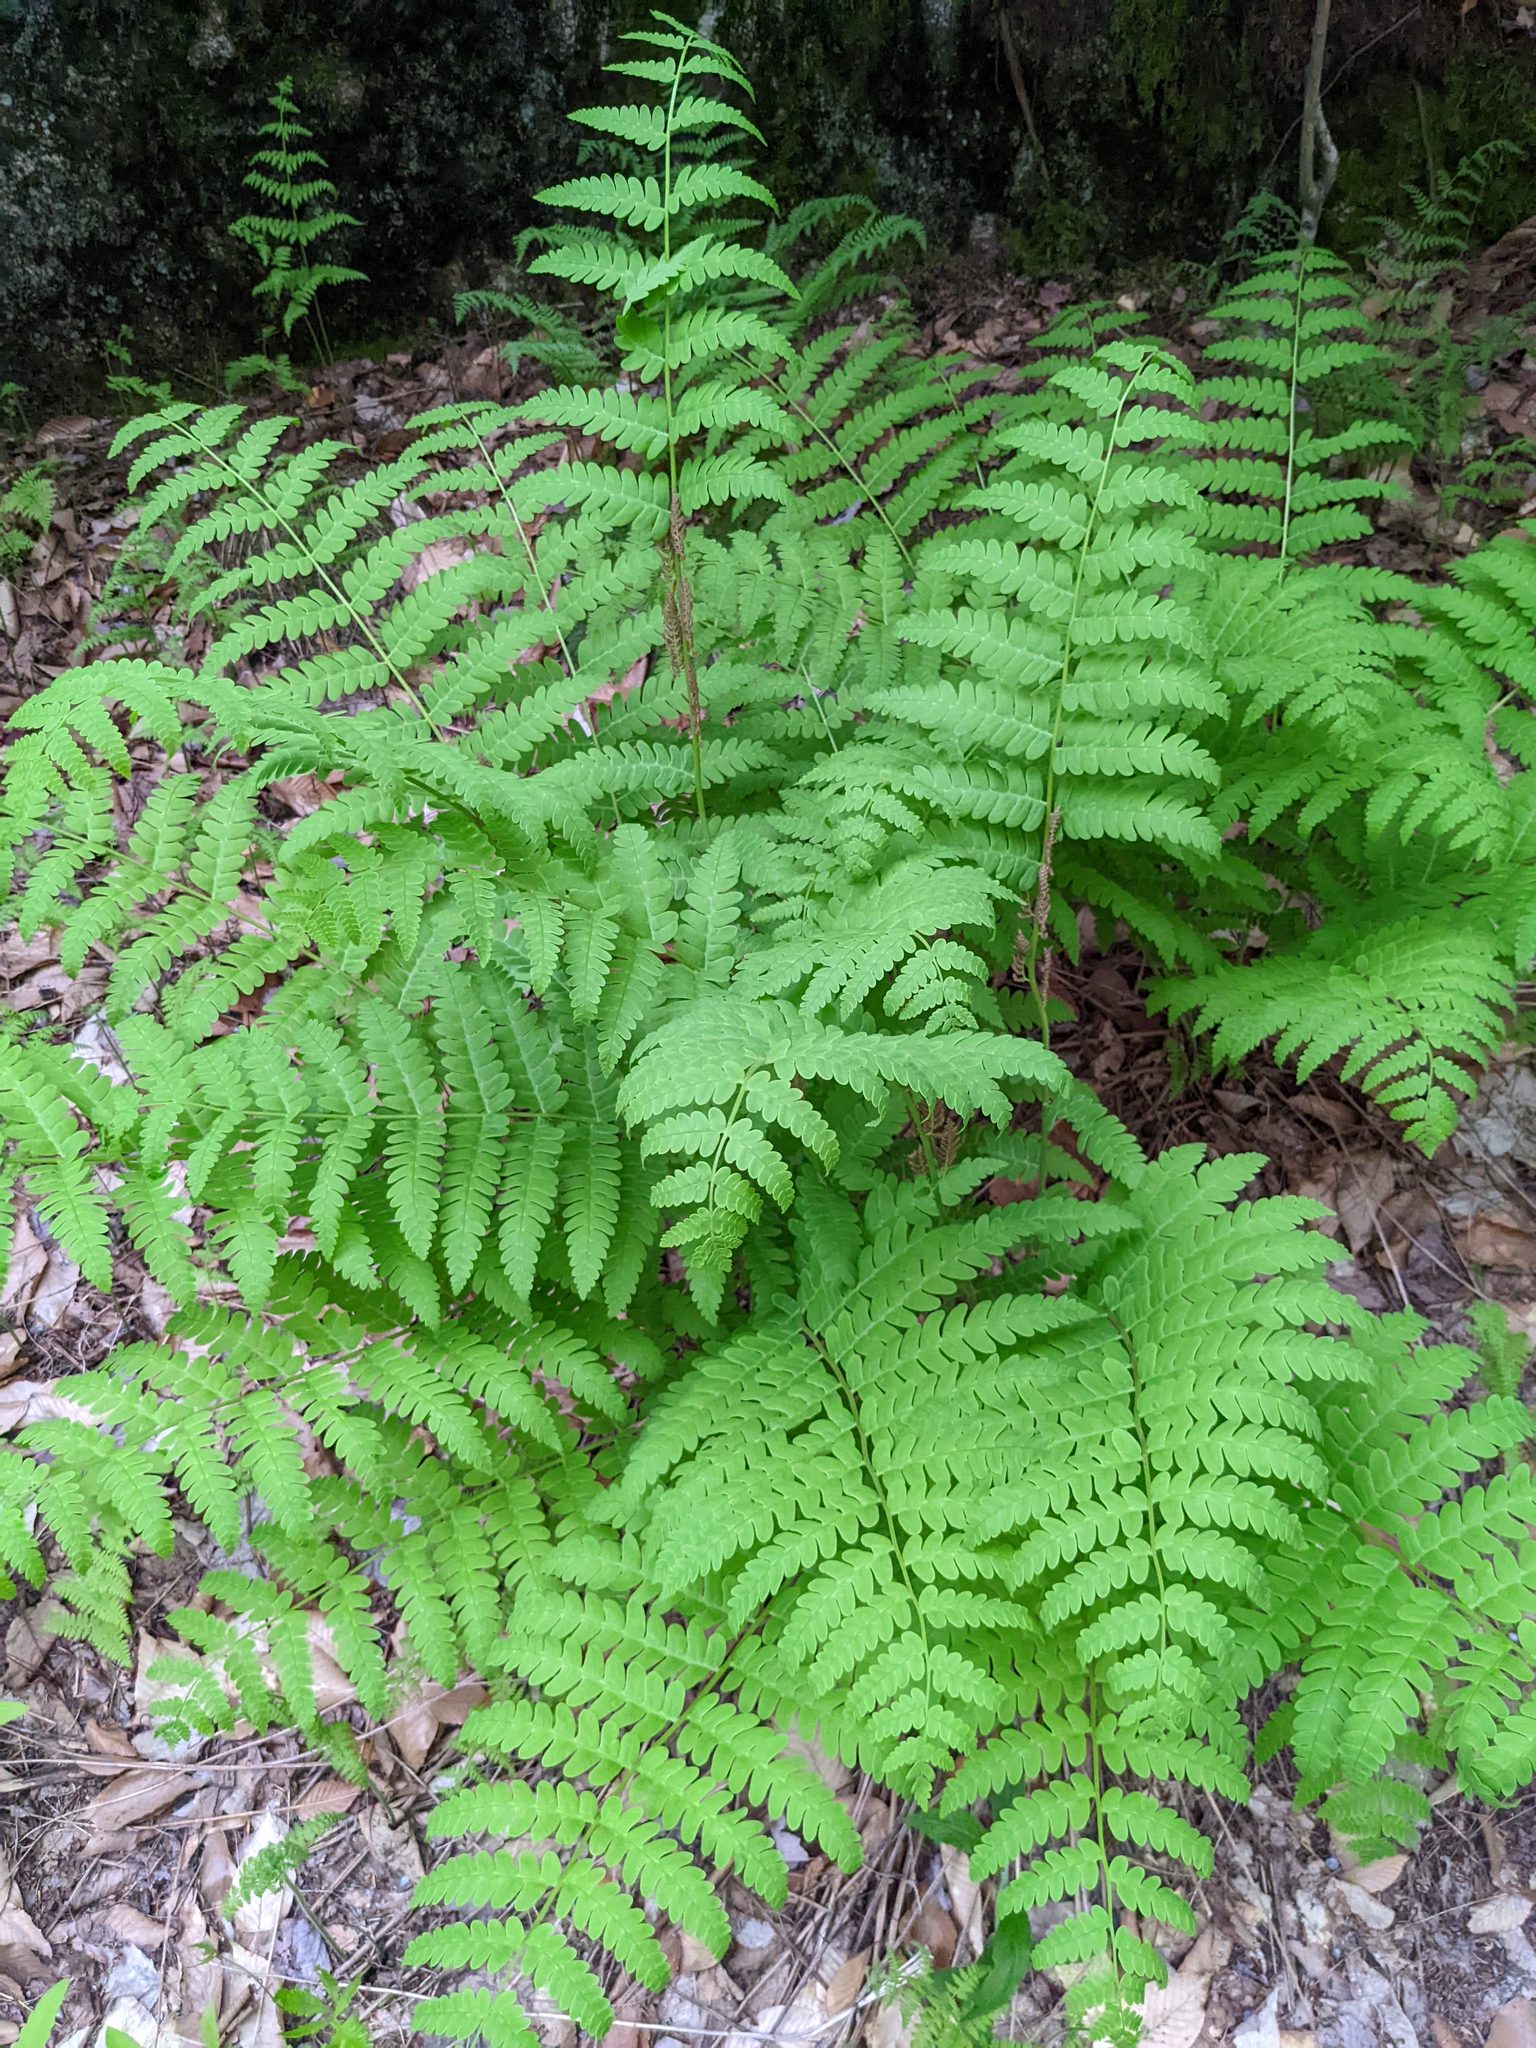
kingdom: Plantae
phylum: Tracheophyta
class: Polypodiopsida
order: Osmundales
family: Osmundaceae
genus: Claytosmunda
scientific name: Claytosmunda claytoniana
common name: Clayton's fern
